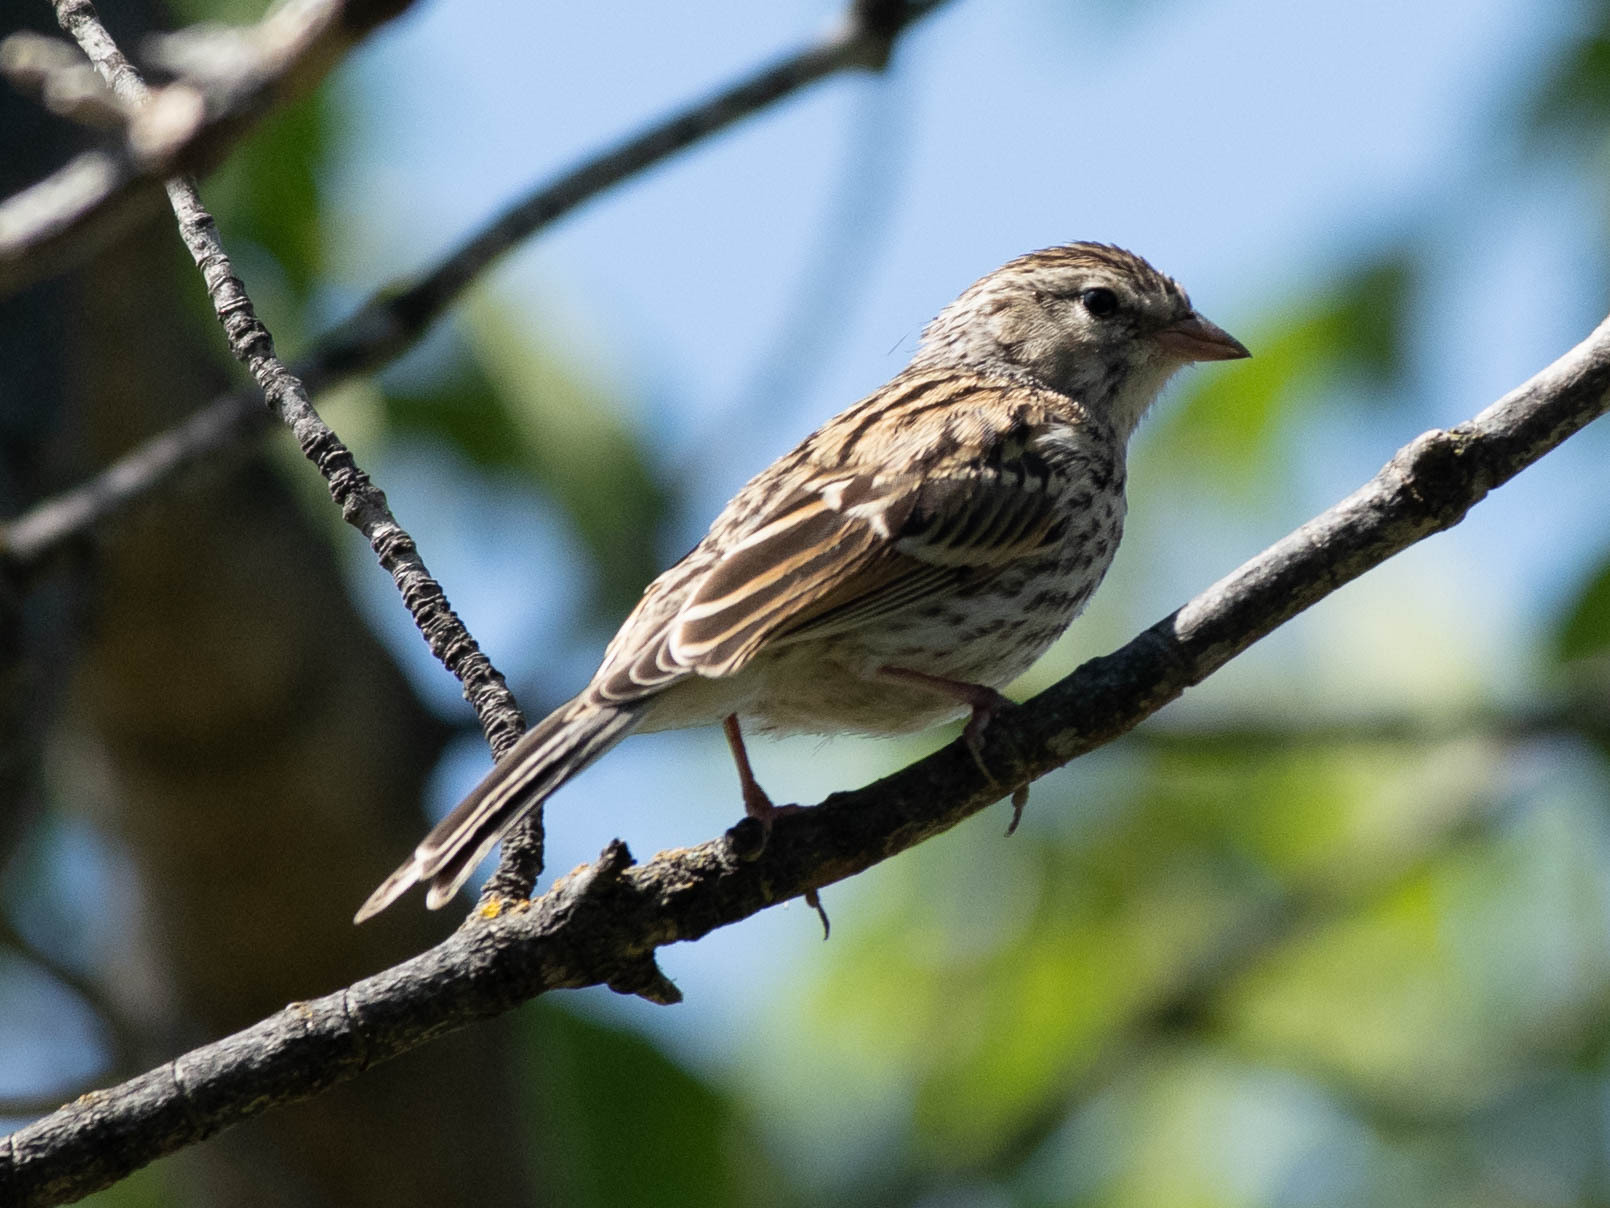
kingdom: Animalia
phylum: Chordata
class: Aves
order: Passeriformes
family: Passerellidae
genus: Spizella
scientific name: Spizella passerina
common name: Chipping sparrow
